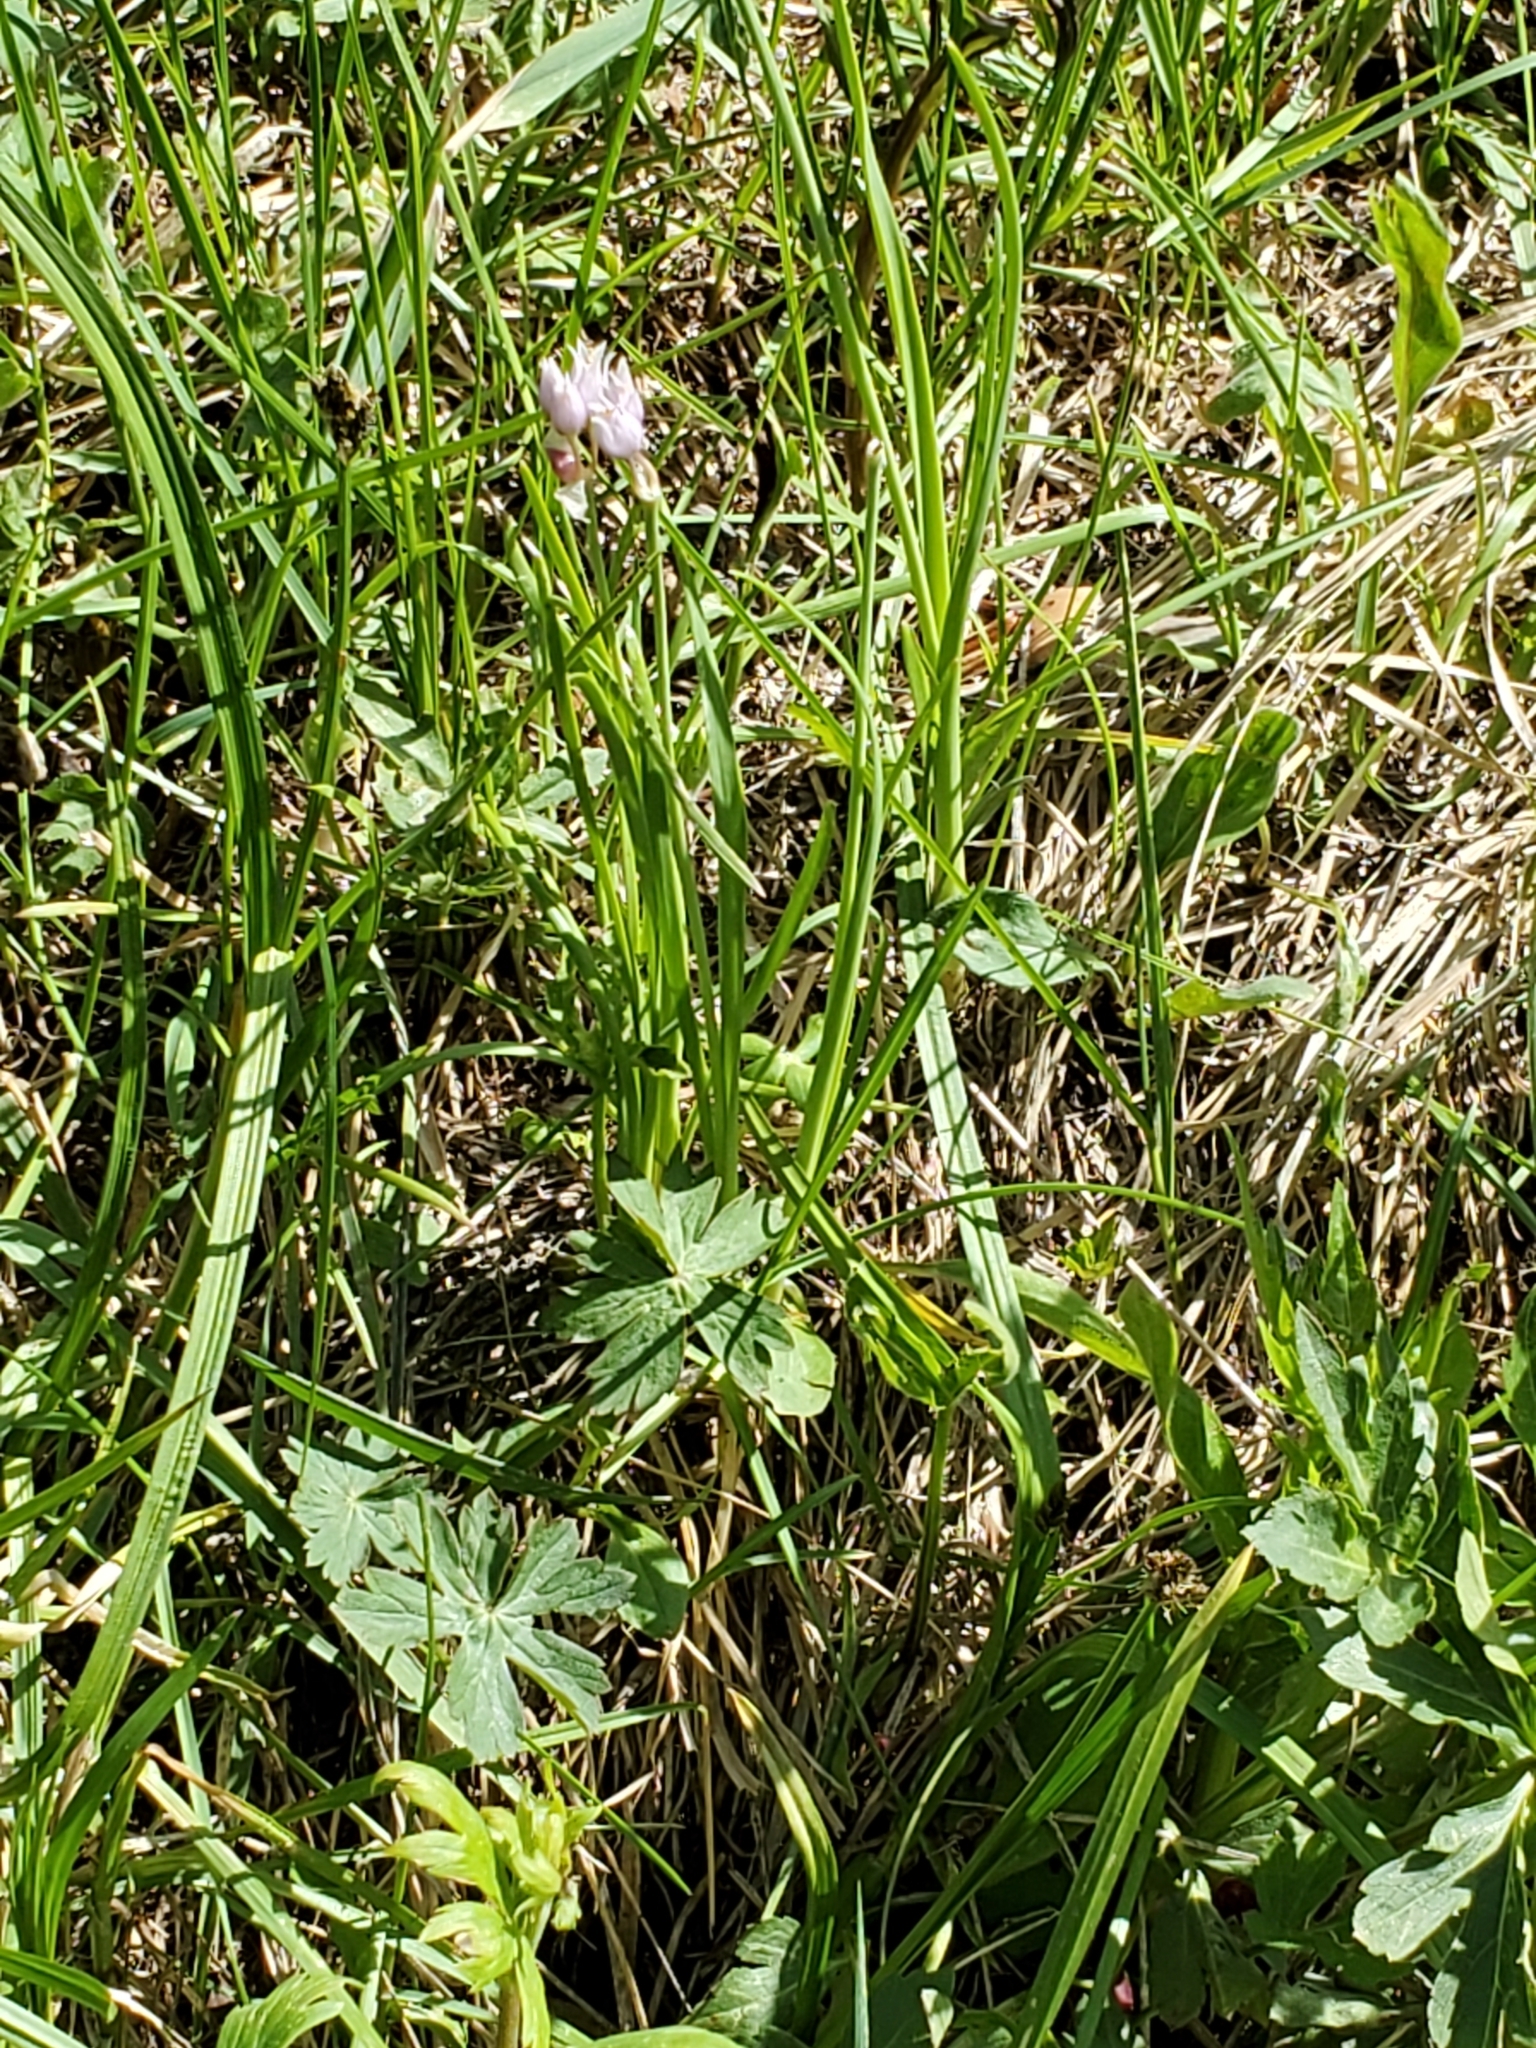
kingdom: Plantae
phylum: Tracheophyta
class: Liliopsida
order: Asparagales
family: Amaryllidaceae
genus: Allium
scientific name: Allium geyeri
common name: Geyer's onion
